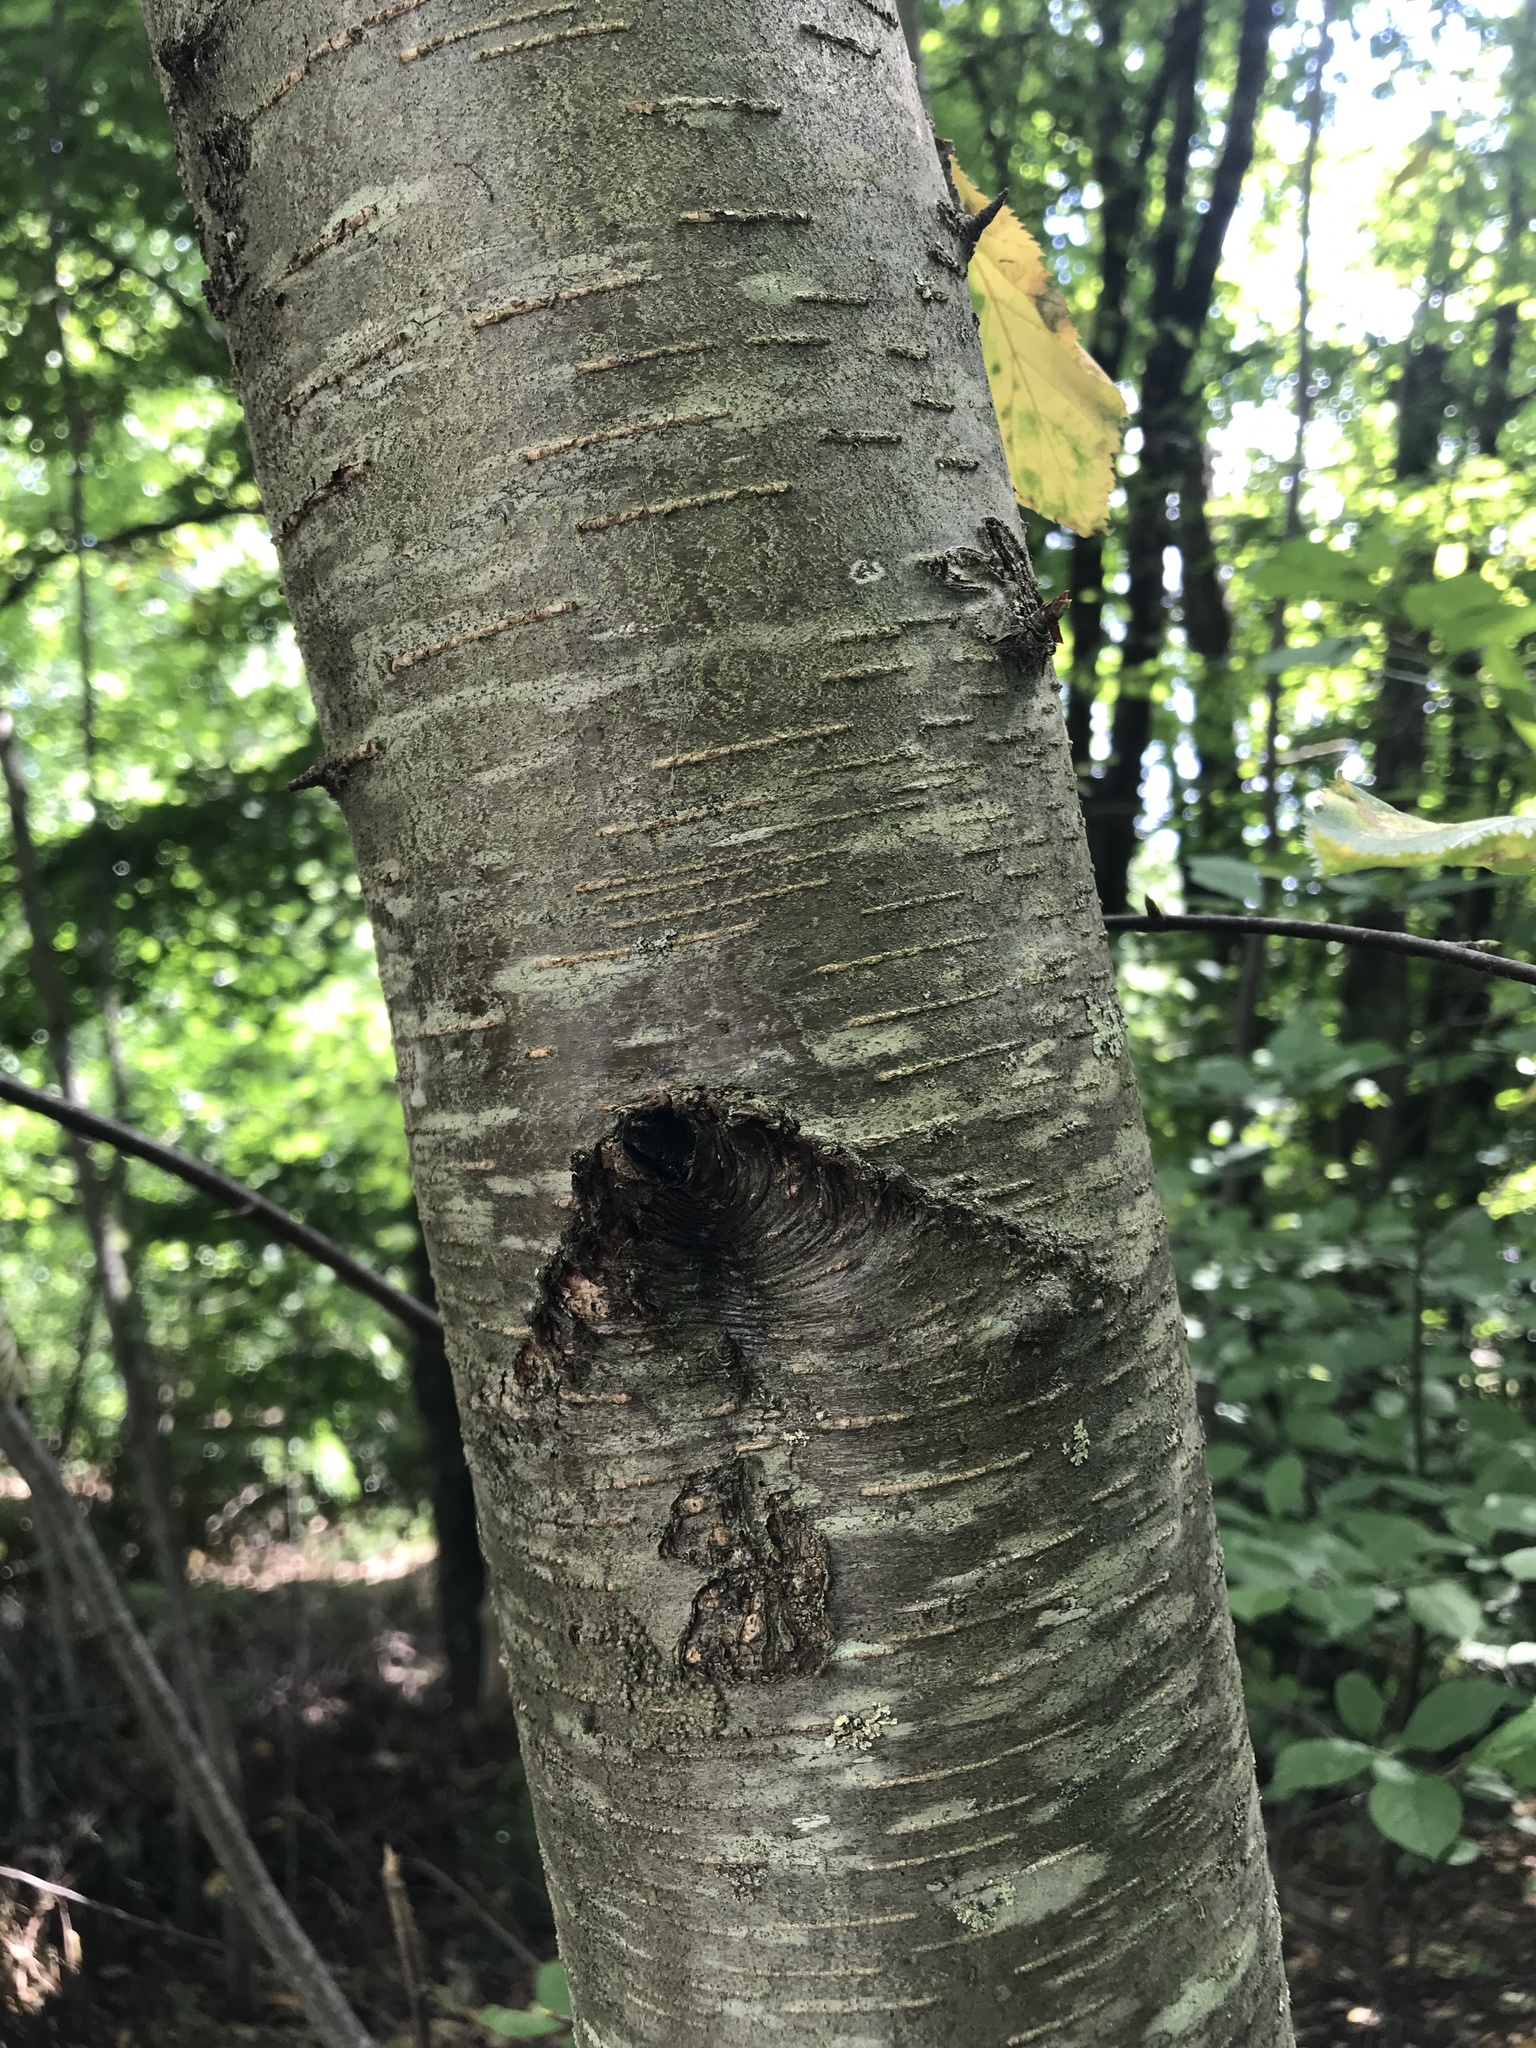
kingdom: Plantae
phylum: Tracheophyta
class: Magnoliopsida
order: Fagales
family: Betulaceae
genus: Betula
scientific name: Betula lenta
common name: Black birch
